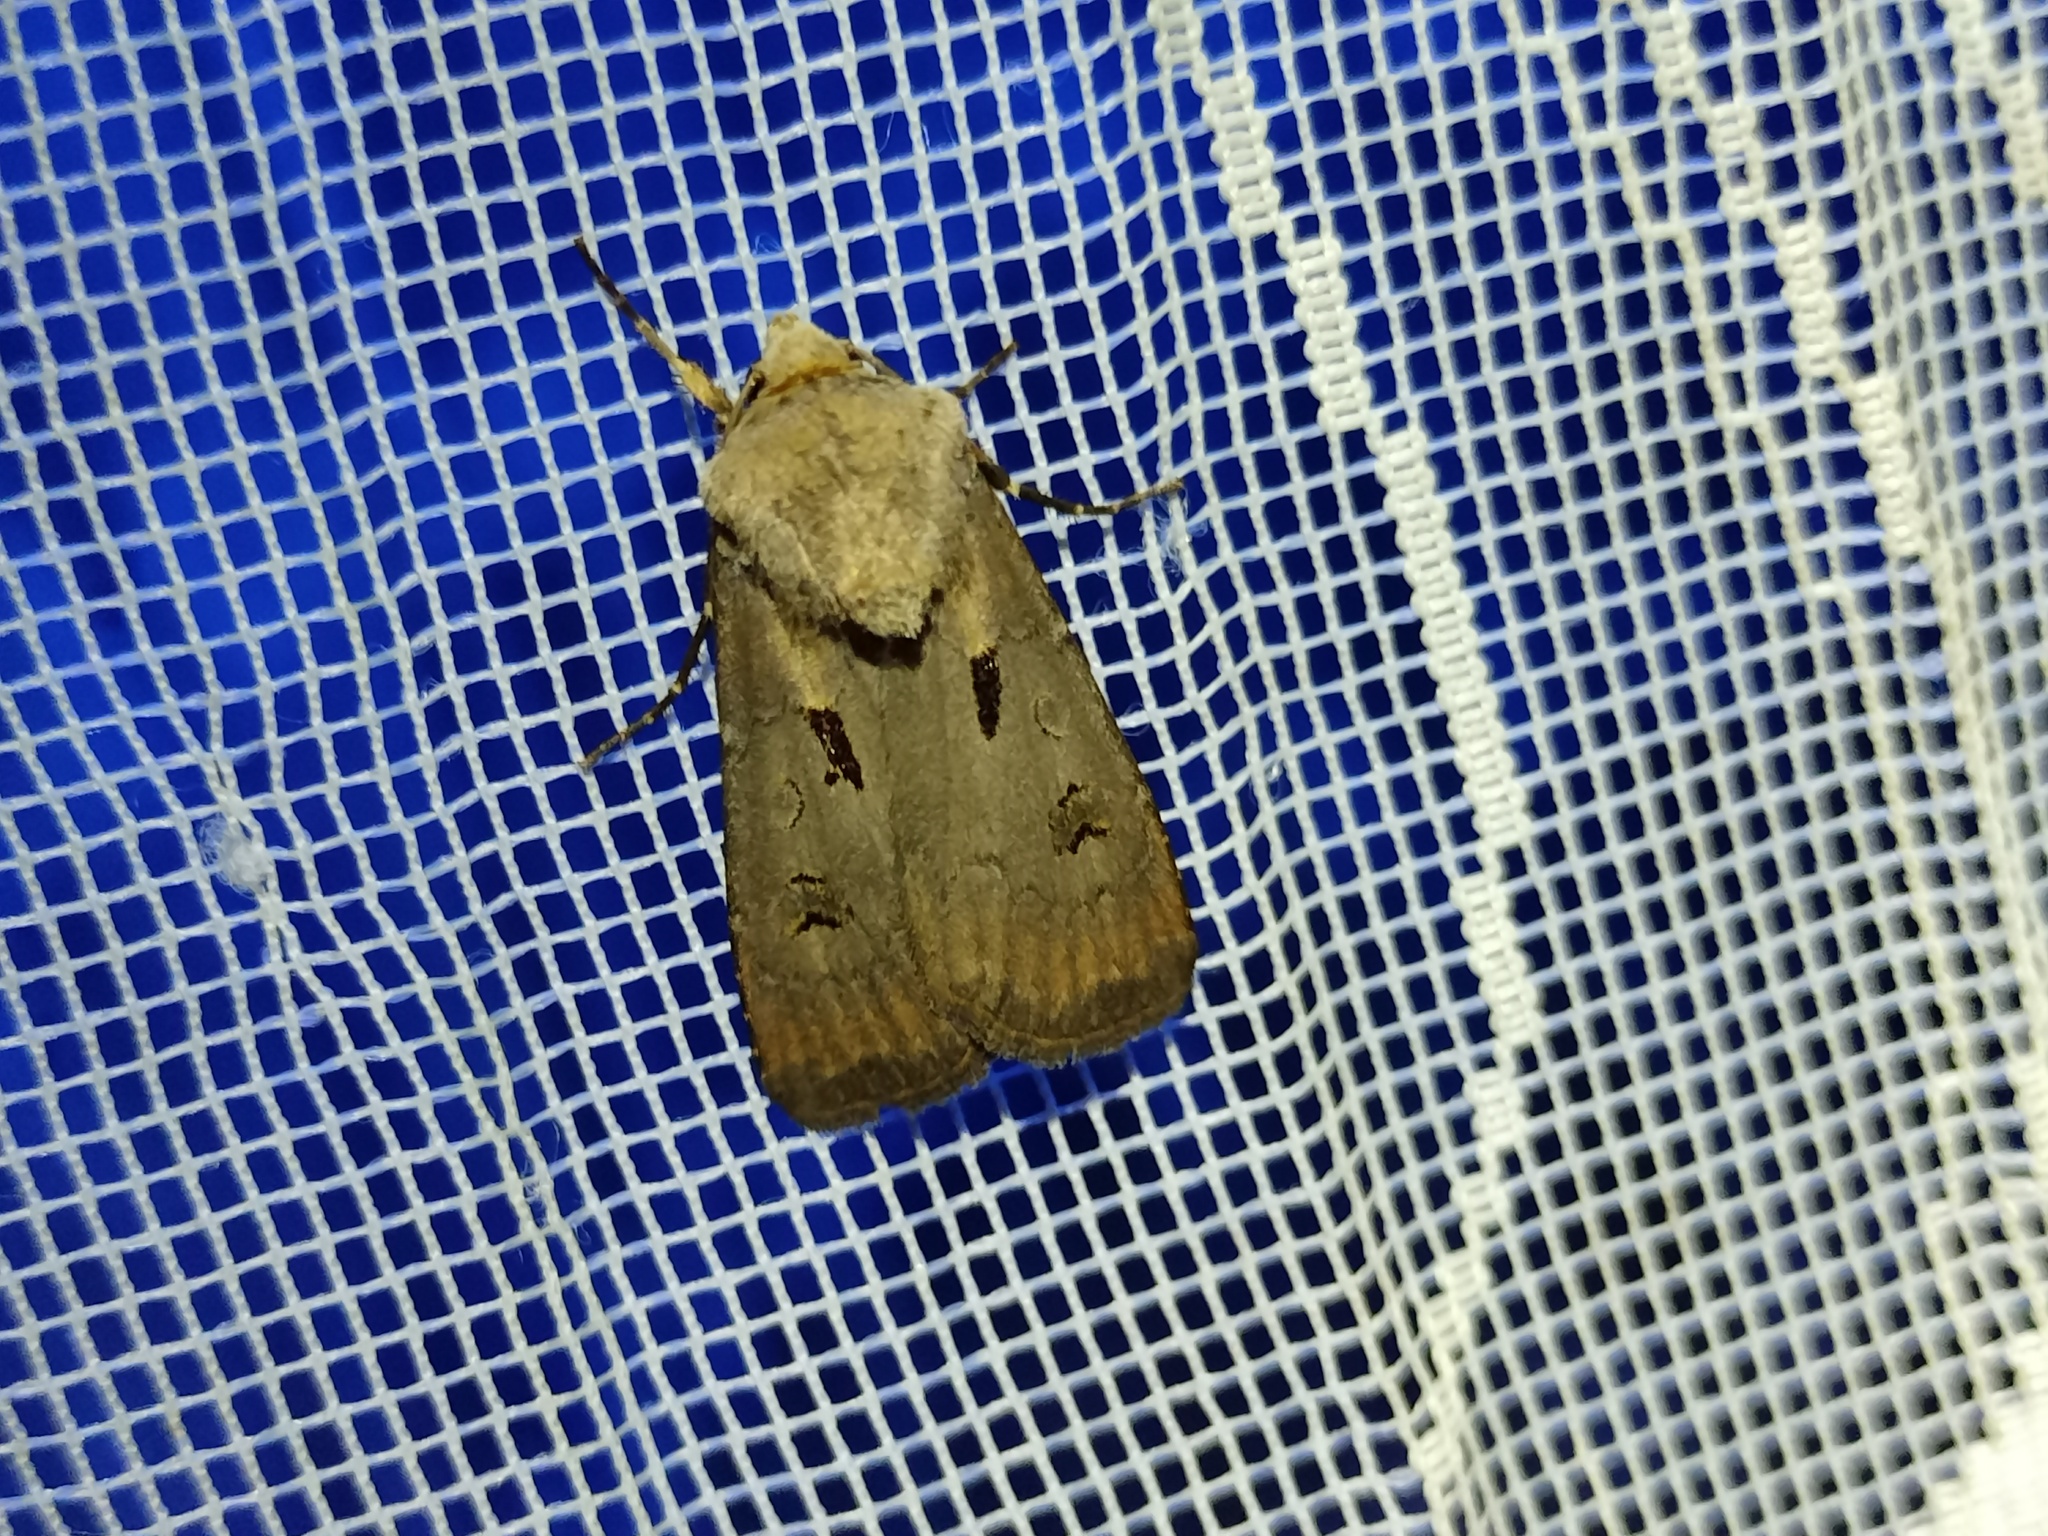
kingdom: Animalia
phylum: Arthropoda
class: Insecta
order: Lepidoptera
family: Noctuidae
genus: Agrotis
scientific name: Agrotis exclamationis
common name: Heart and dart
